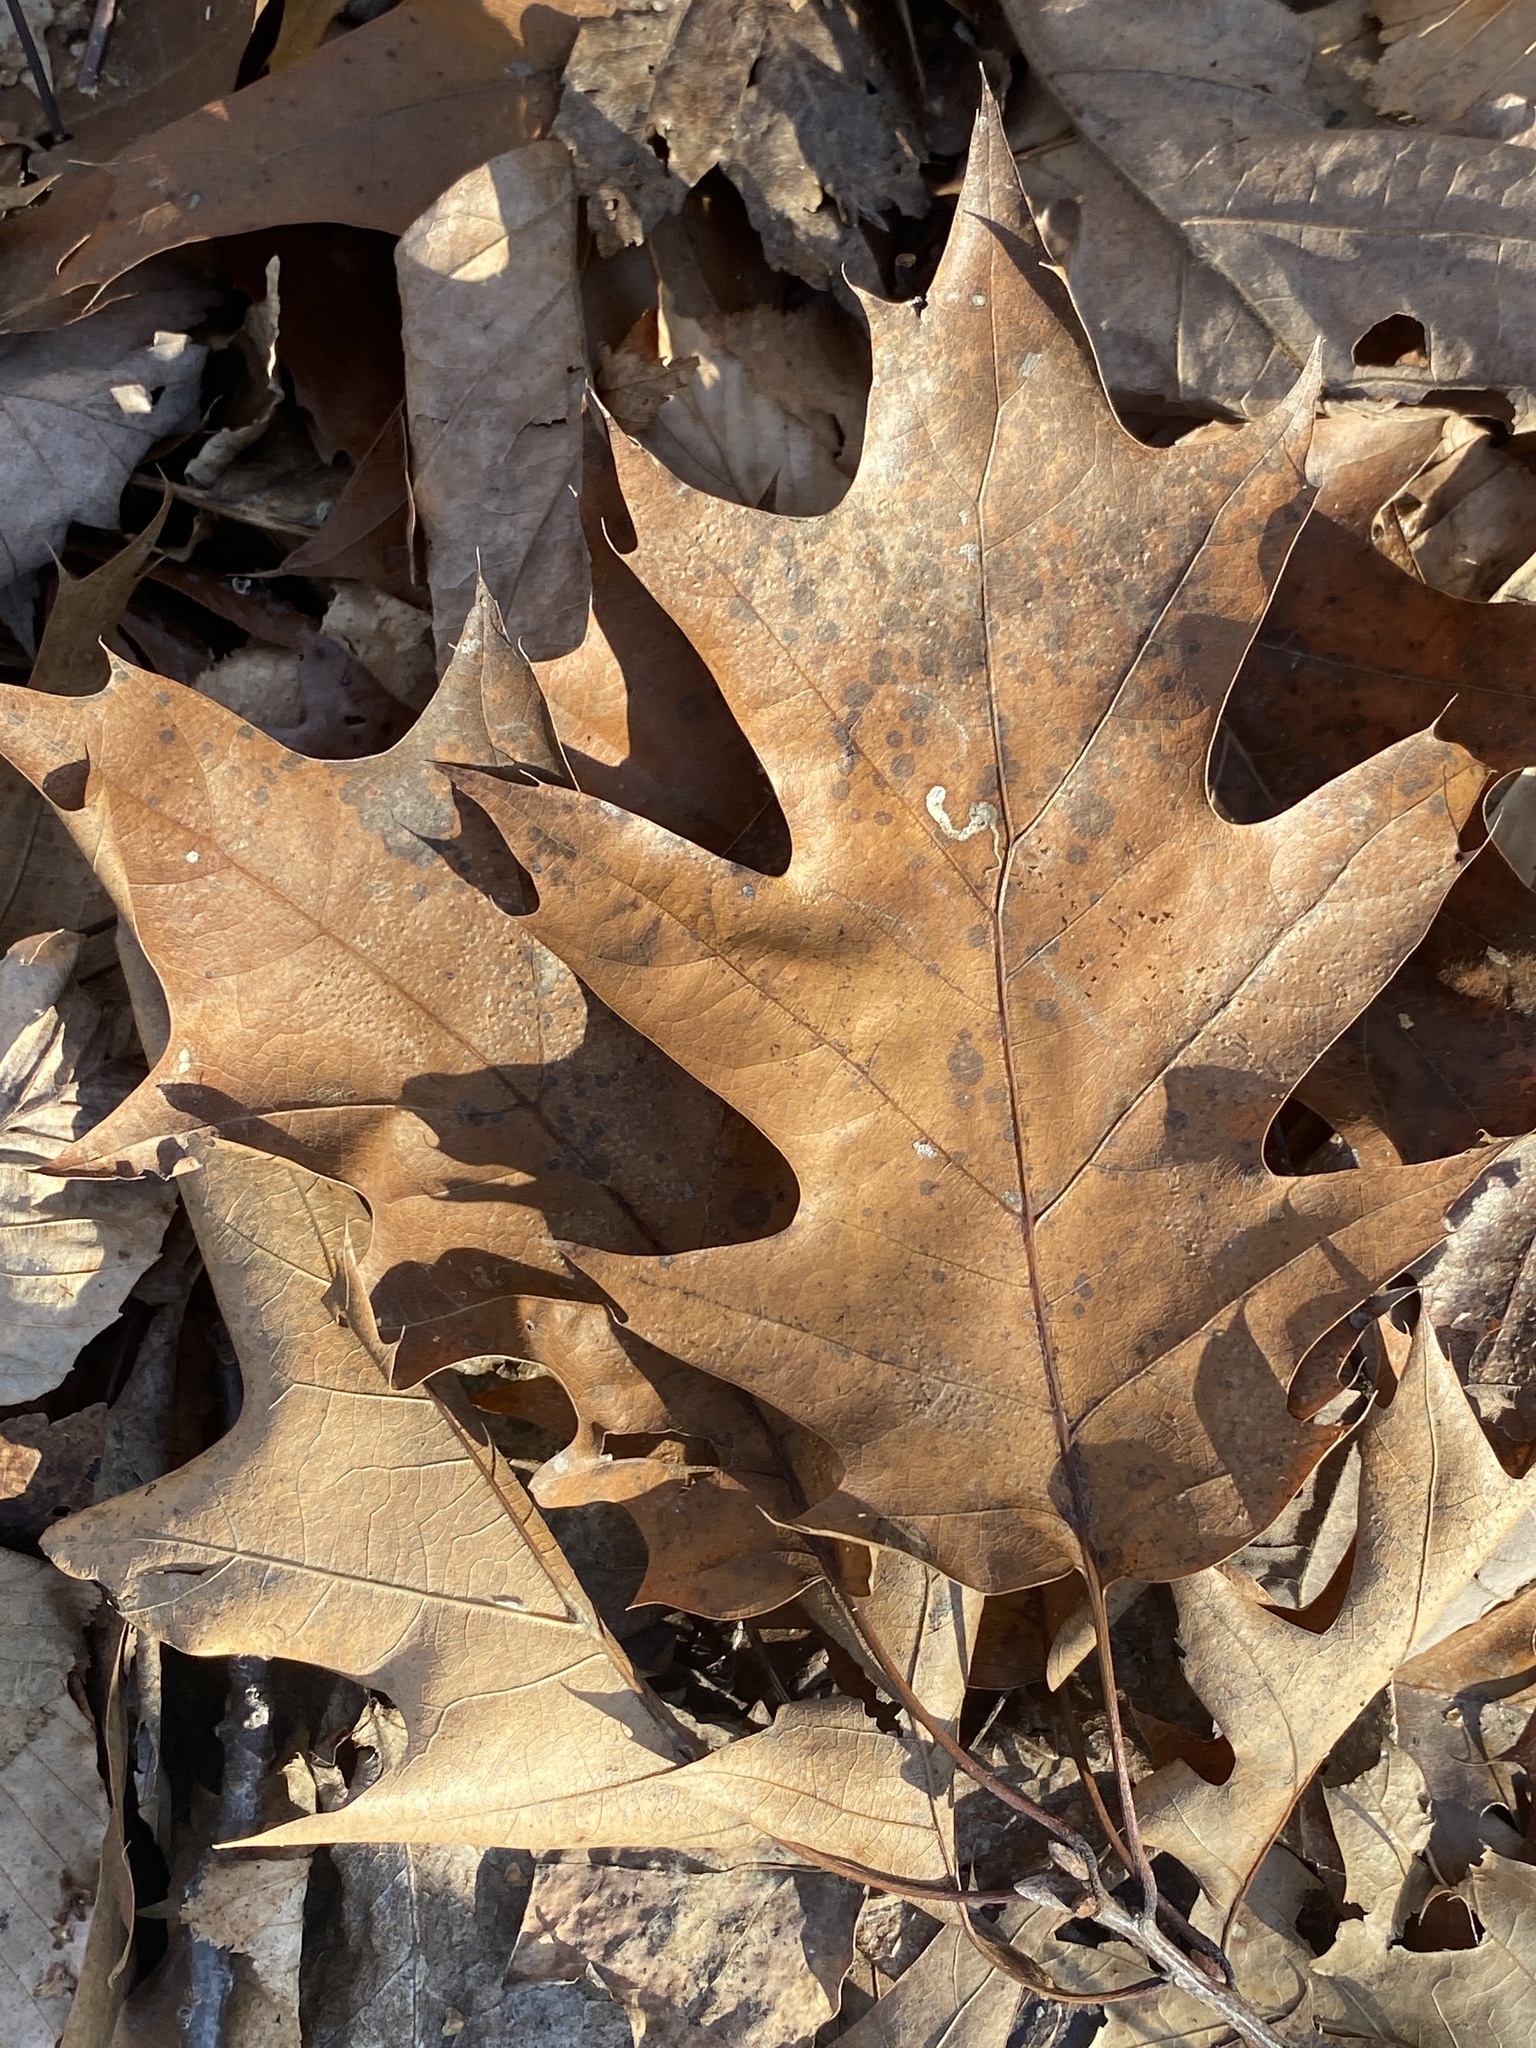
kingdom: Plantae
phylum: Tracheophyta
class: Magnoliopsida
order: Fagales
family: Fagaceae
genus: Quercus
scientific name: Quercus rubra
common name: Red oak
